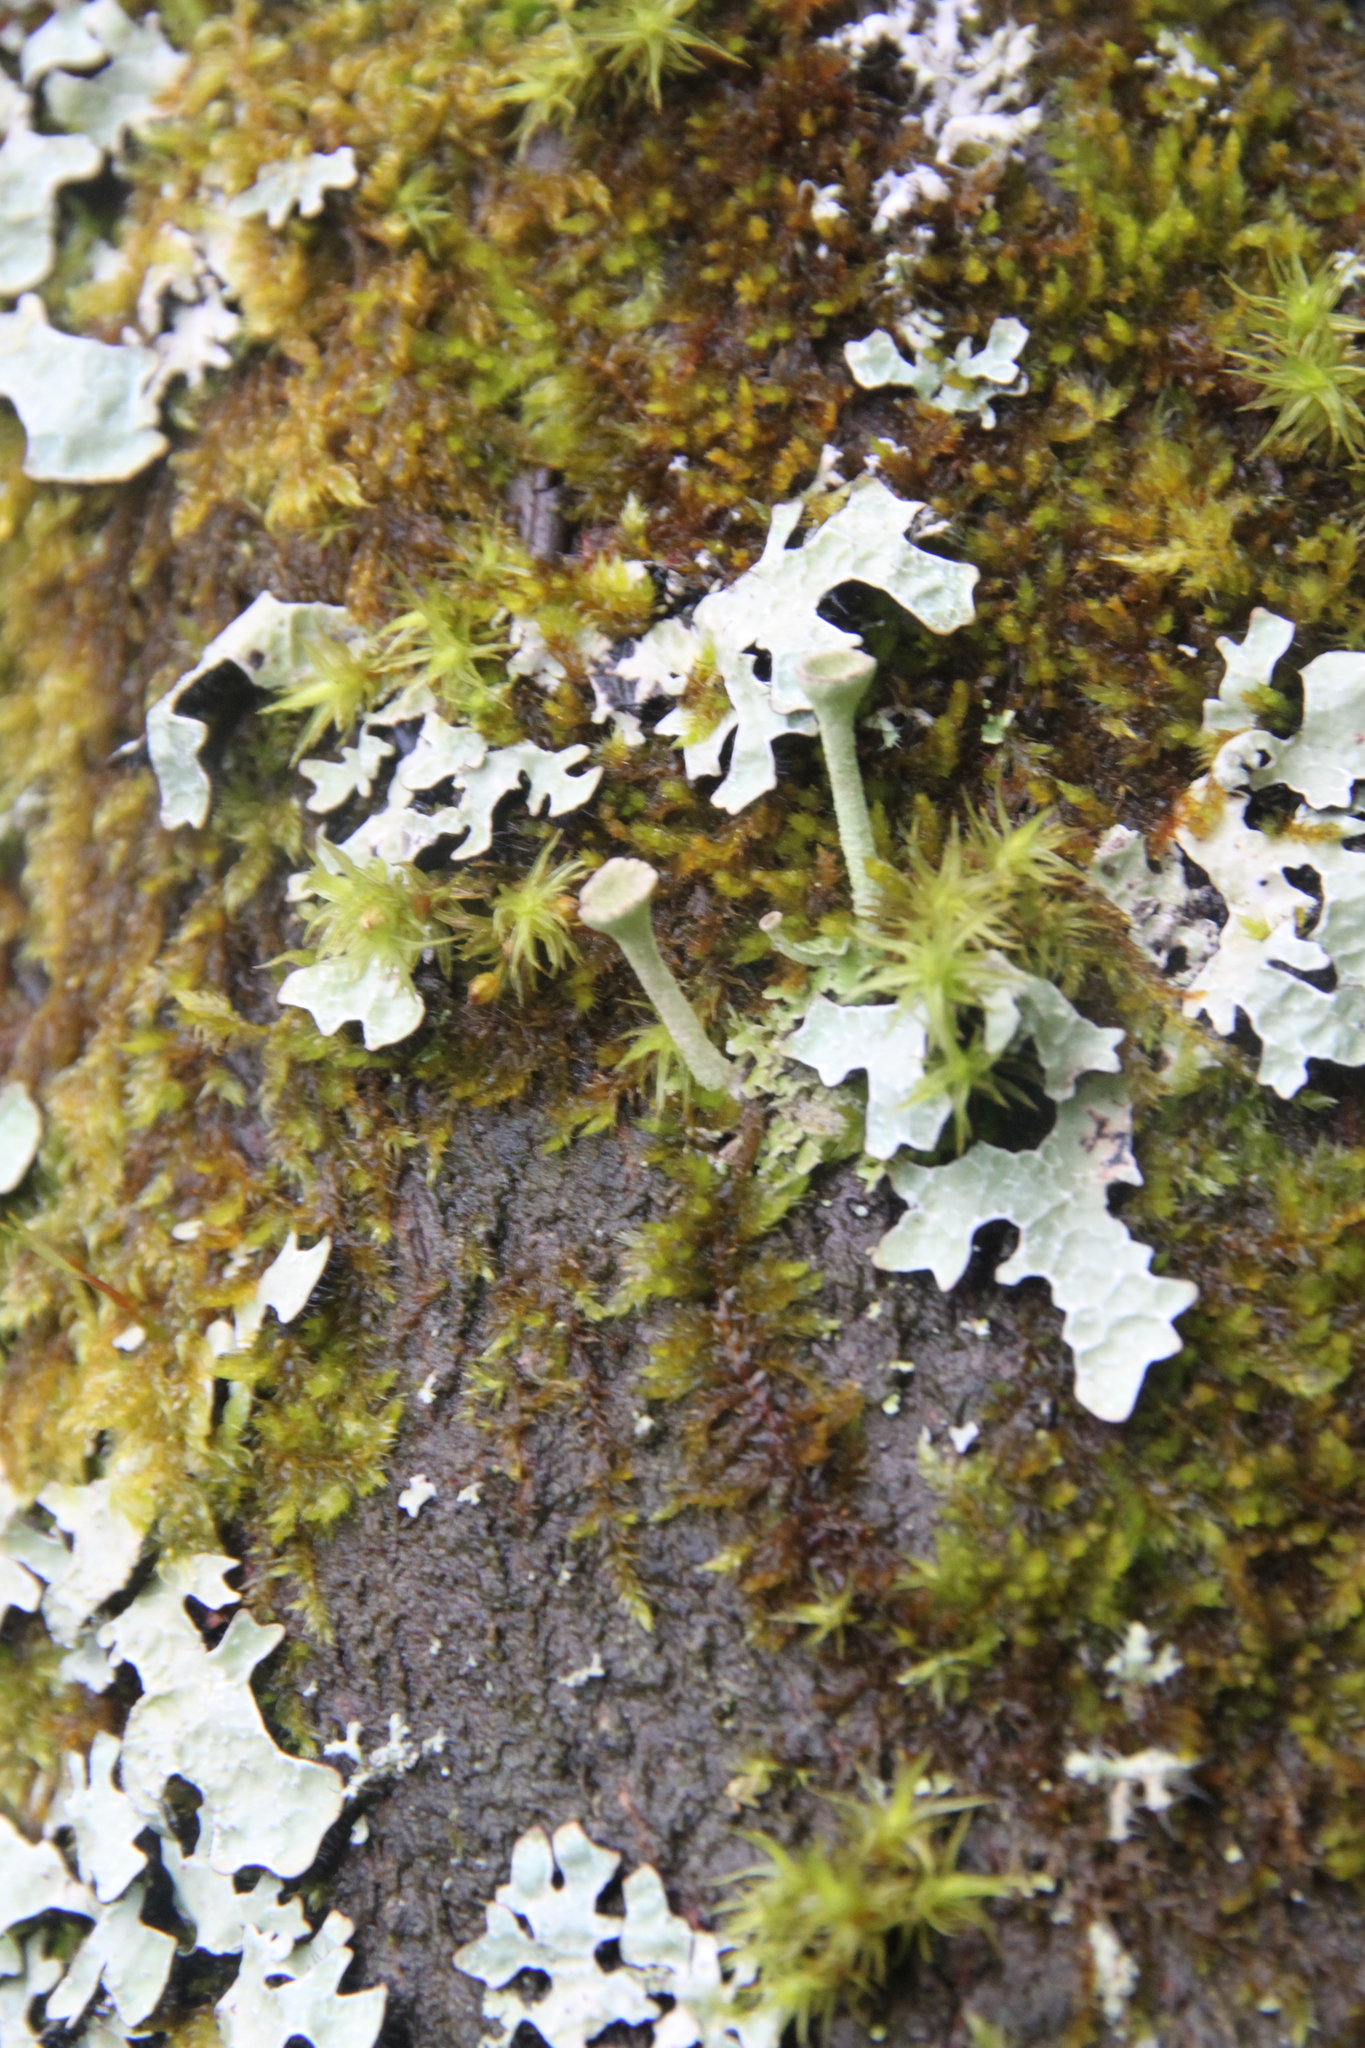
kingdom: Fungi
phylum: Ascomycota
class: Lecanoromycetes
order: Lecanorales
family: Parmeliaceae
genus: Parmelia
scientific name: Parmelia sulcata
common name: Netted shield lichen
